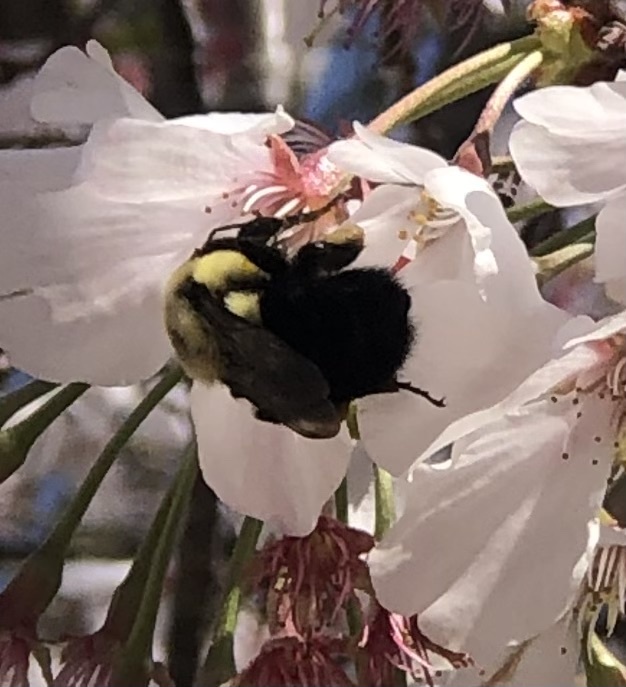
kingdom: Animalia
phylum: Arthropoda
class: Insecta
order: Hymenoptera
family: Apidae
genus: Bombus
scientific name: Bombus impatiens
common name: Common eastern bumble bee
